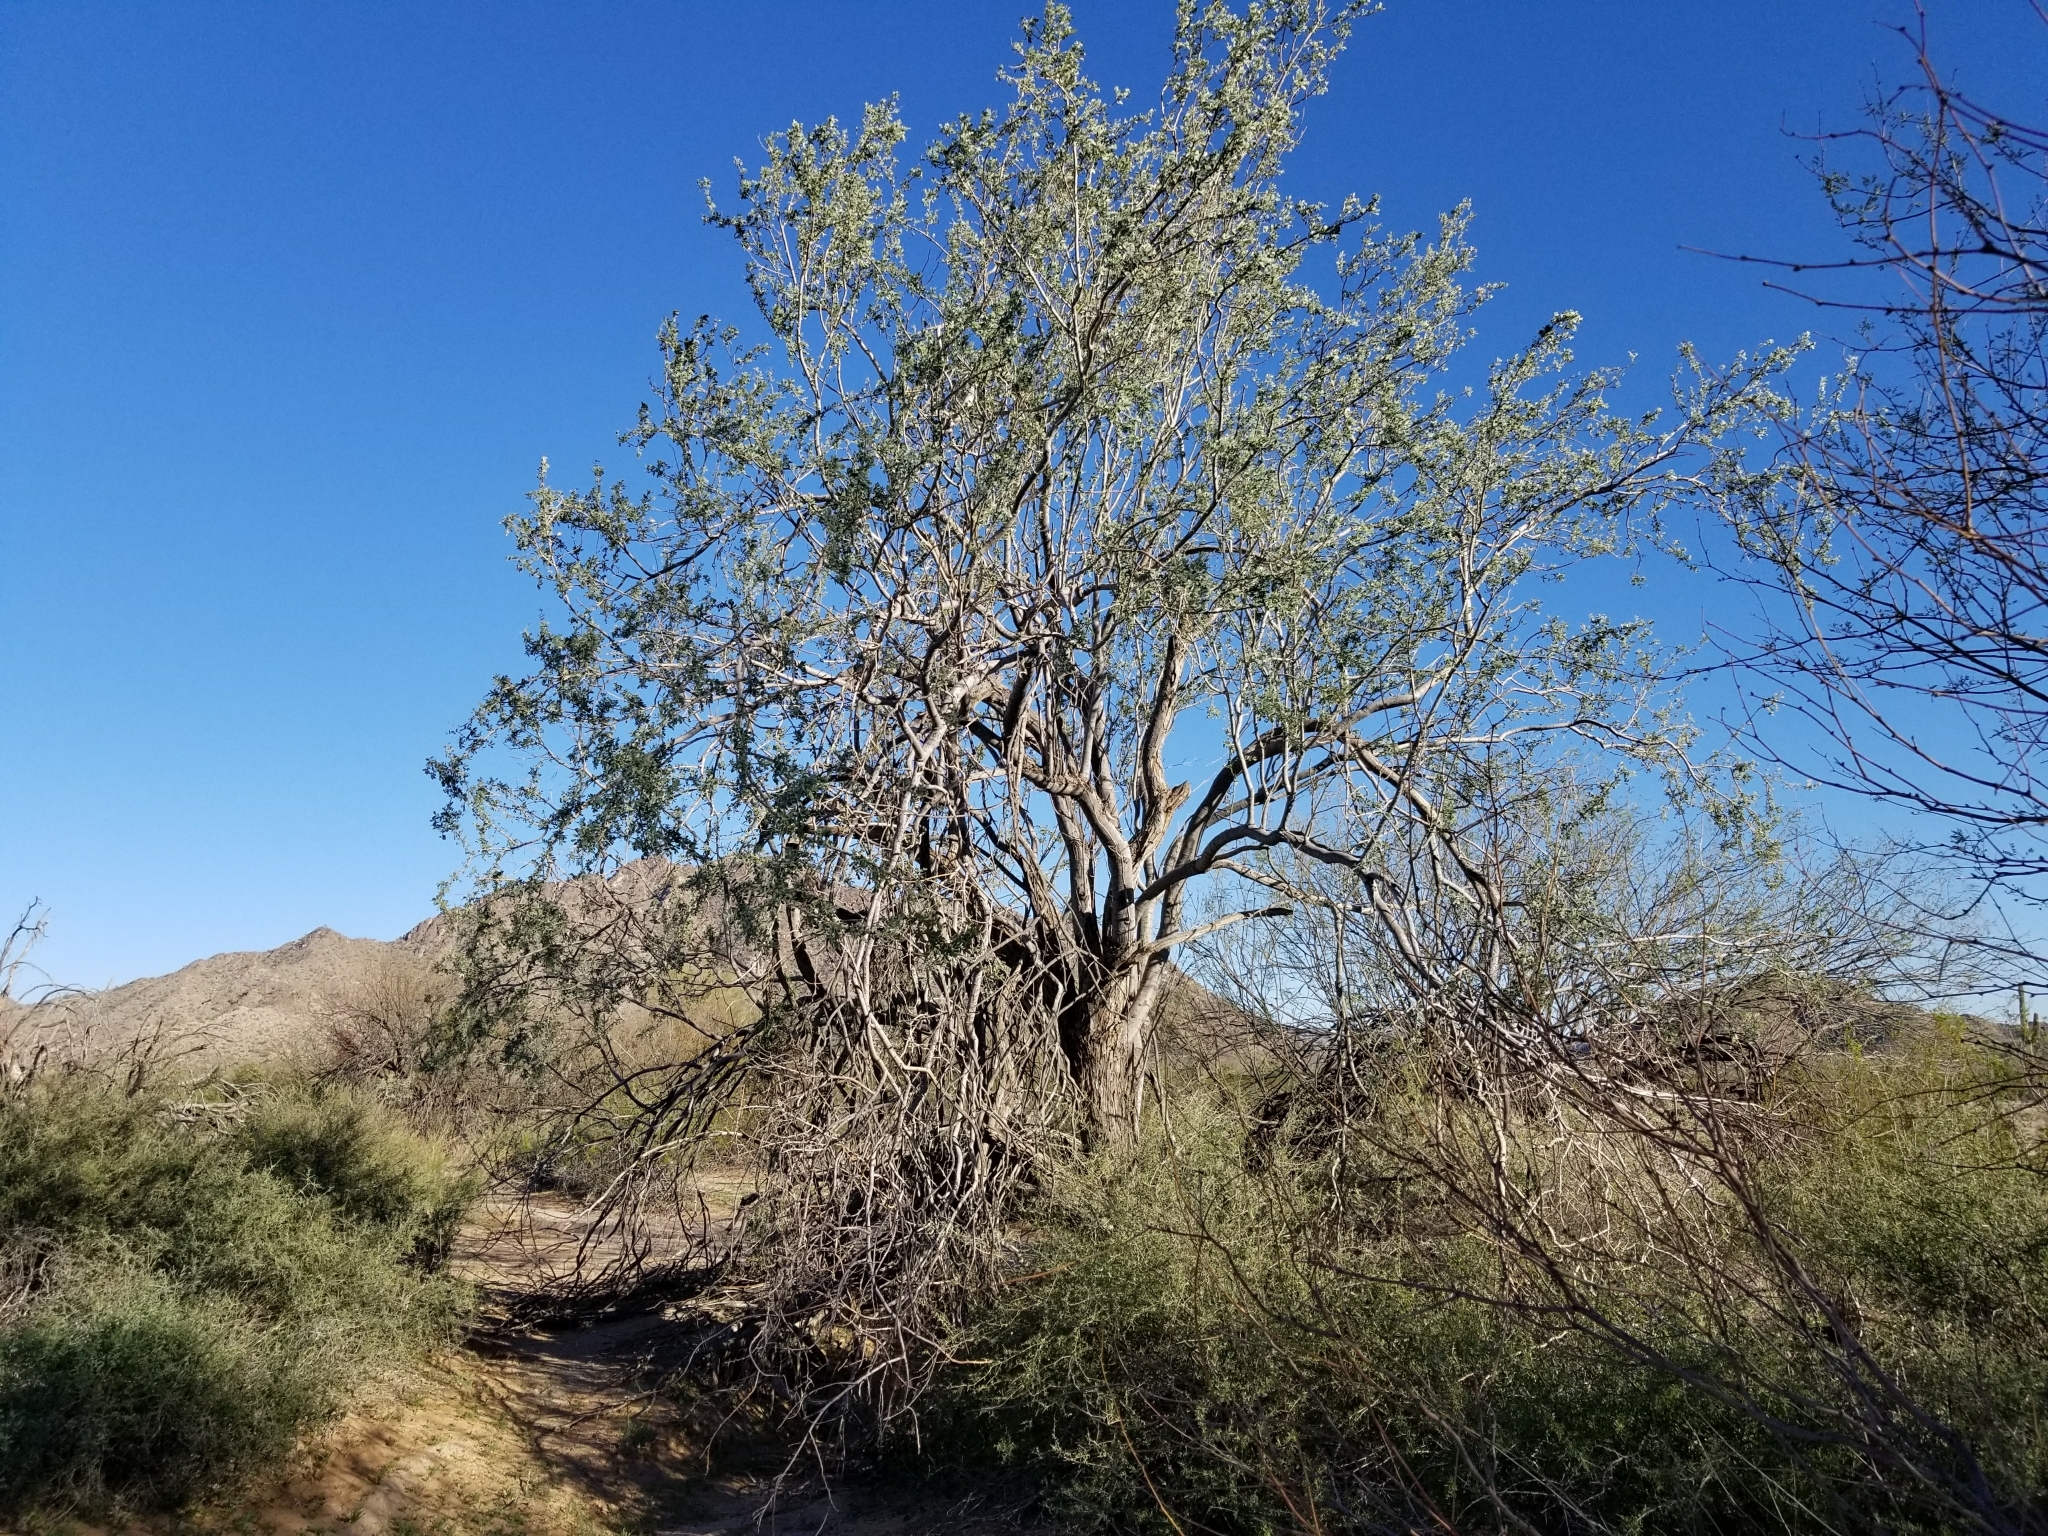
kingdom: Plantae
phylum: Tracheophyta
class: Magnoliopsida
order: Fabales
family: Fabaceae
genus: Olneya
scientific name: Olneya tesota
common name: Desert ironwood
